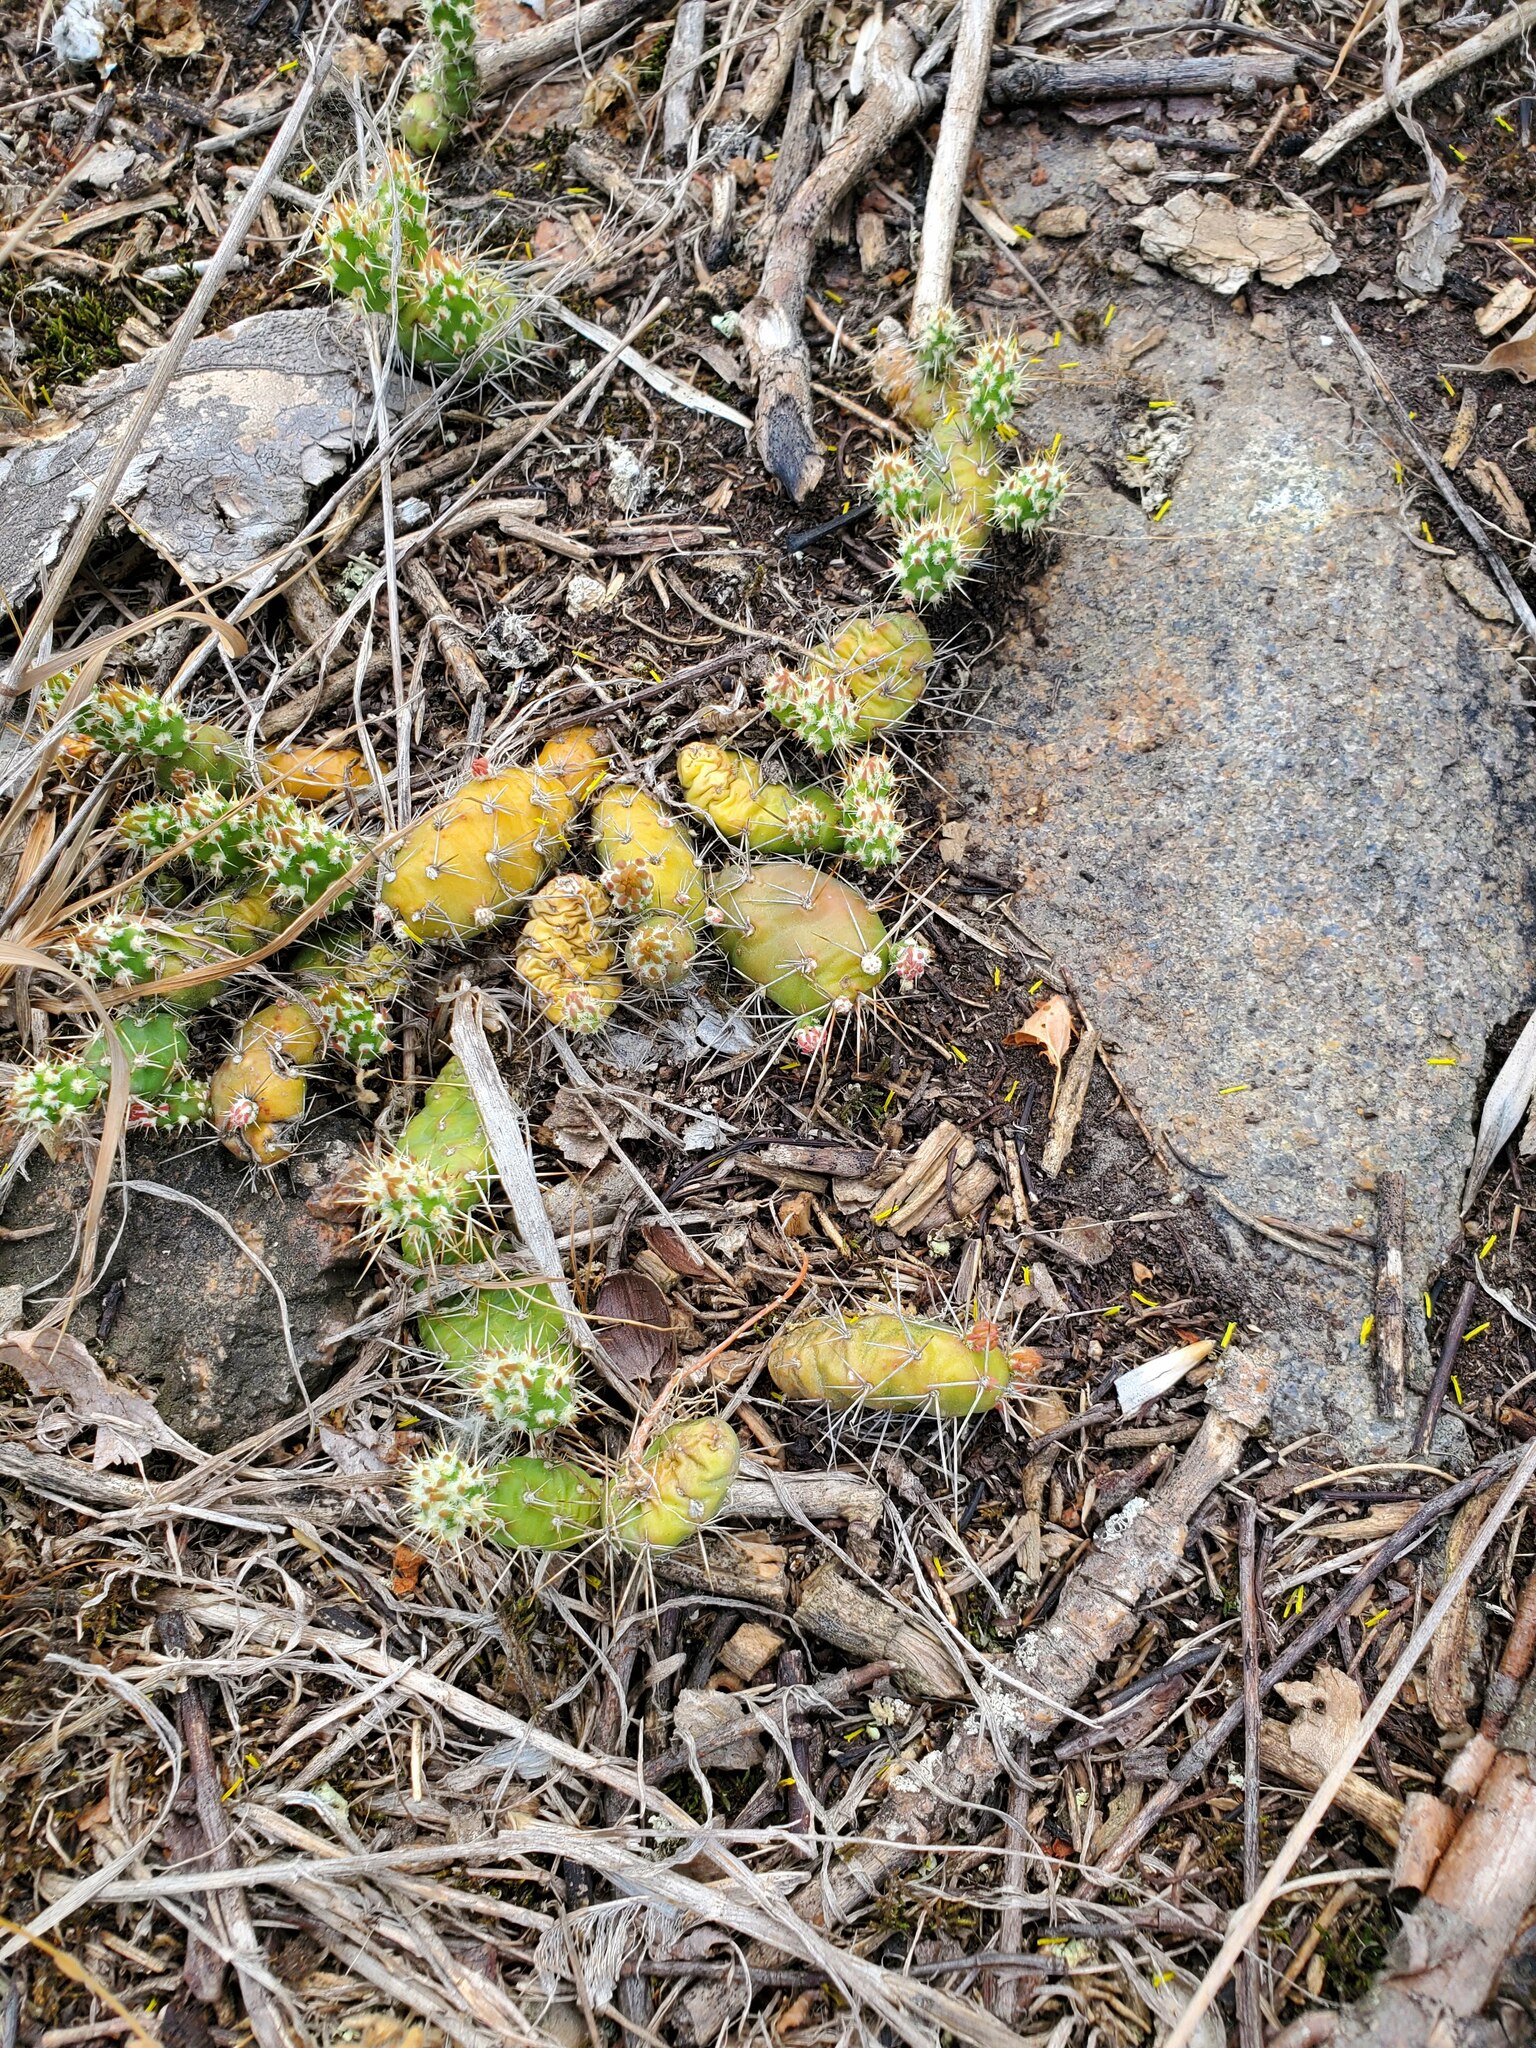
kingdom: Plantae
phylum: Tracheophyta
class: Magnoliopsida
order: Caryophyllales
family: Cactaceae
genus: Opuntia
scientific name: Opuntia fragilis
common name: Brittle cactus
